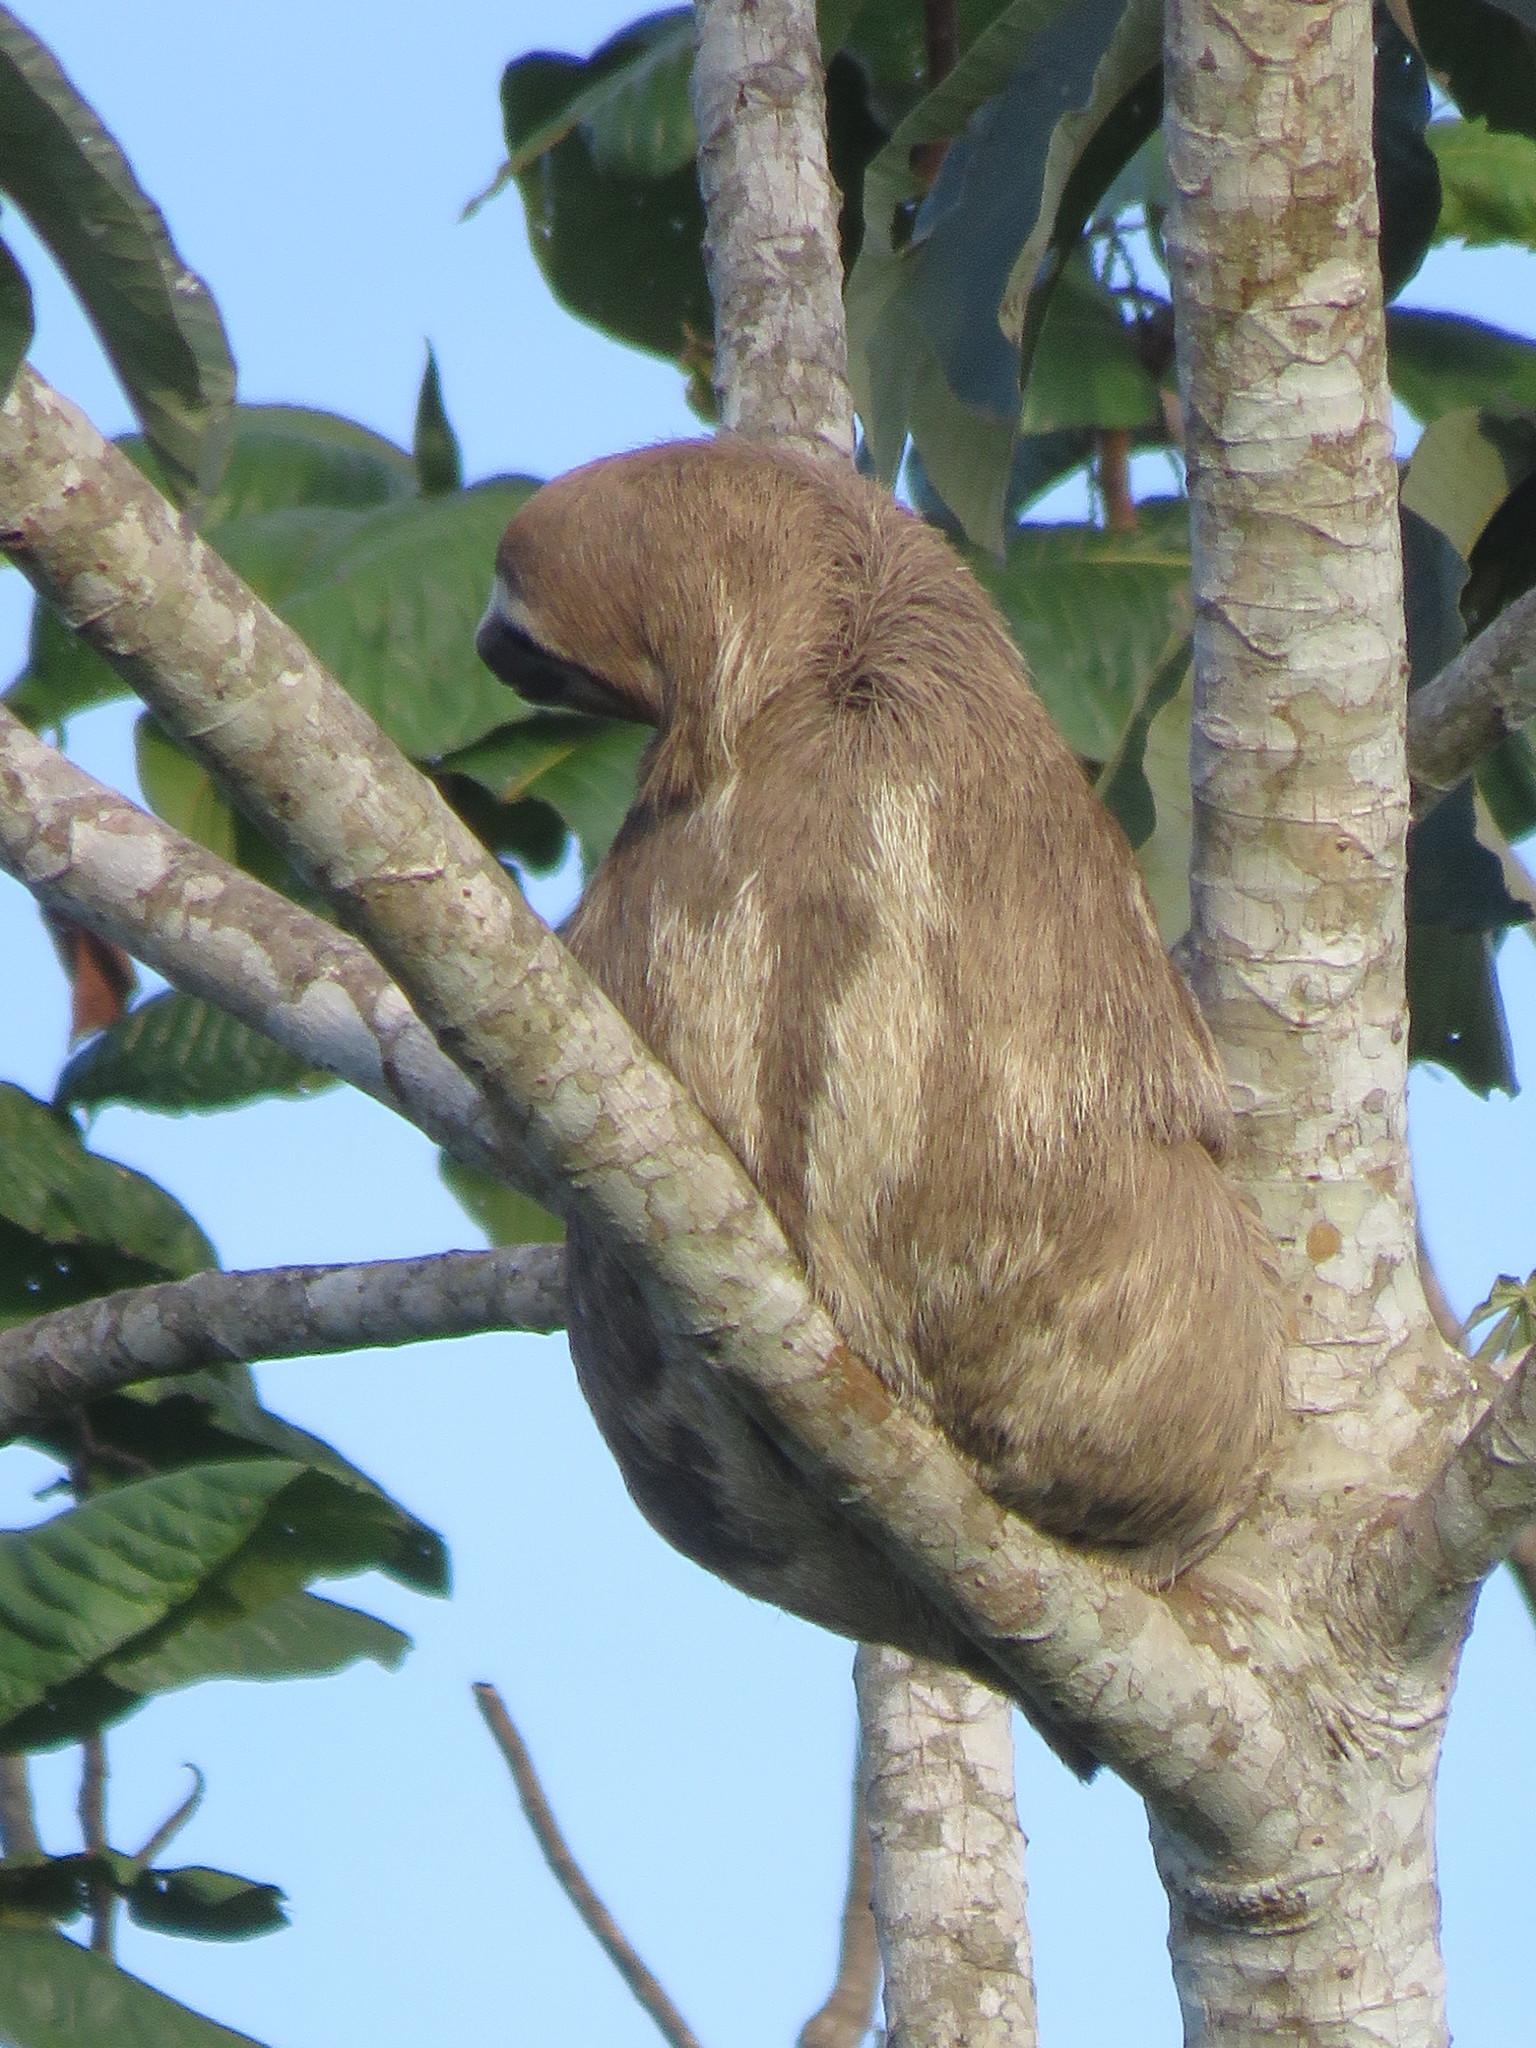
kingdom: Animalia
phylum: Chordata
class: Mammalia
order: Pilosa
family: Bradypodidae
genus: Bradypus
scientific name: Bradypus variegatus
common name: Brown-throated three-toed sloth
